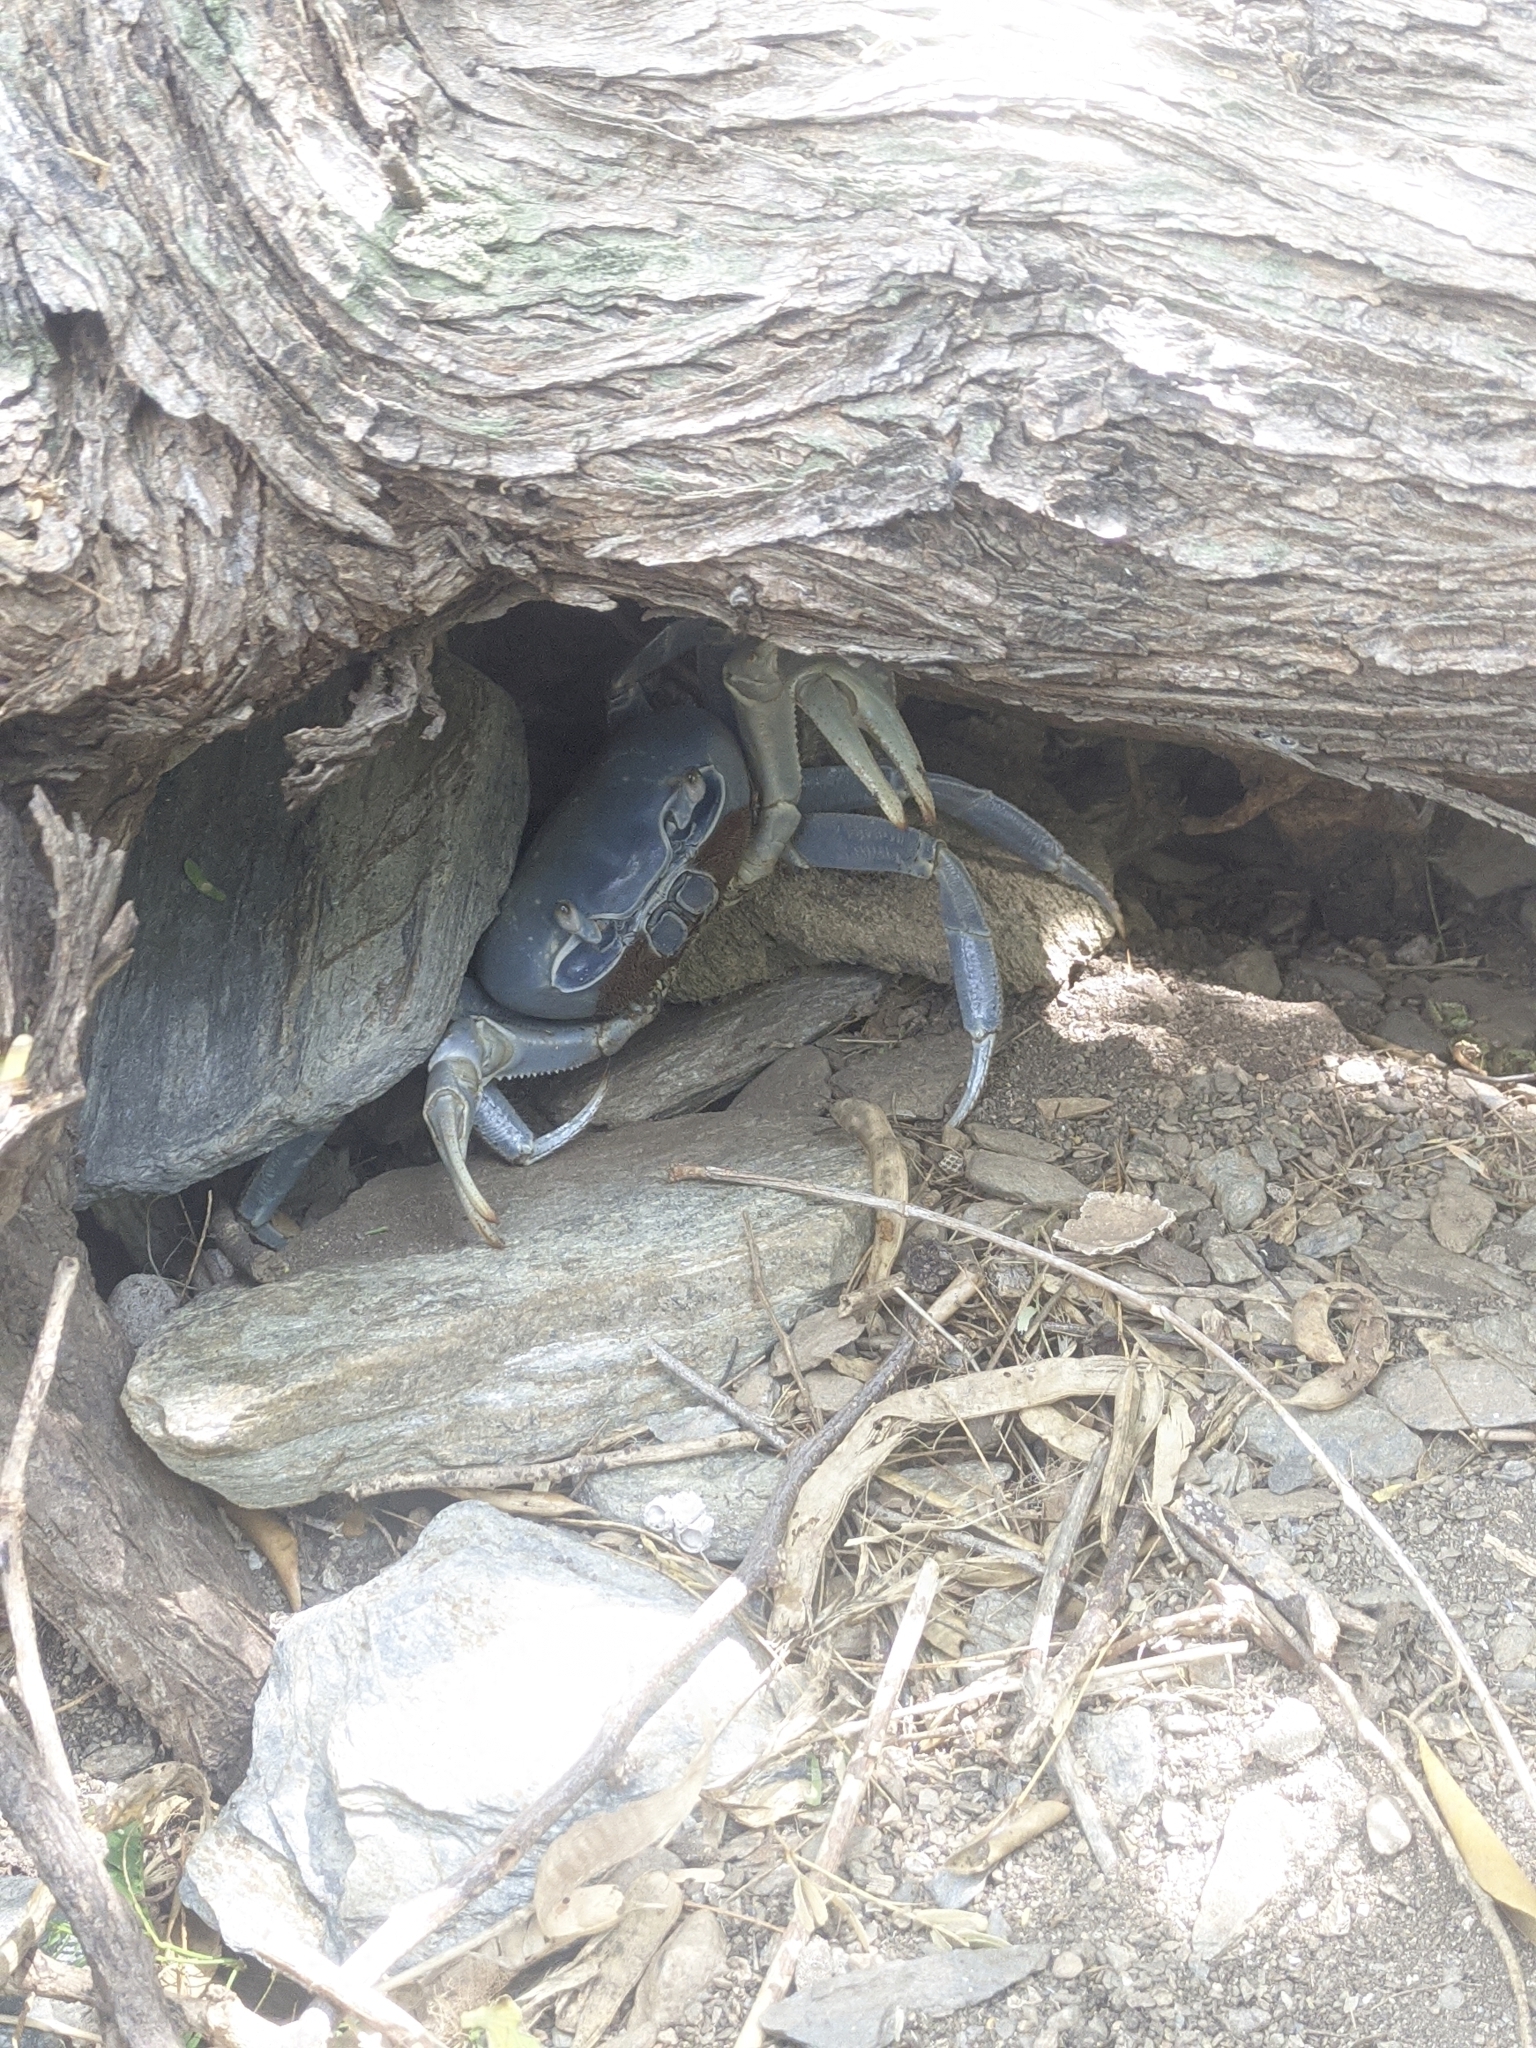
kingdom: Animalia
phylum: Arthropoda
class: Malacostraca
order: Decapoda
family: Gecarcinidae
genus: Cardisoma
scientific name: Cardisoma guanhumi
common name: Great land crab
